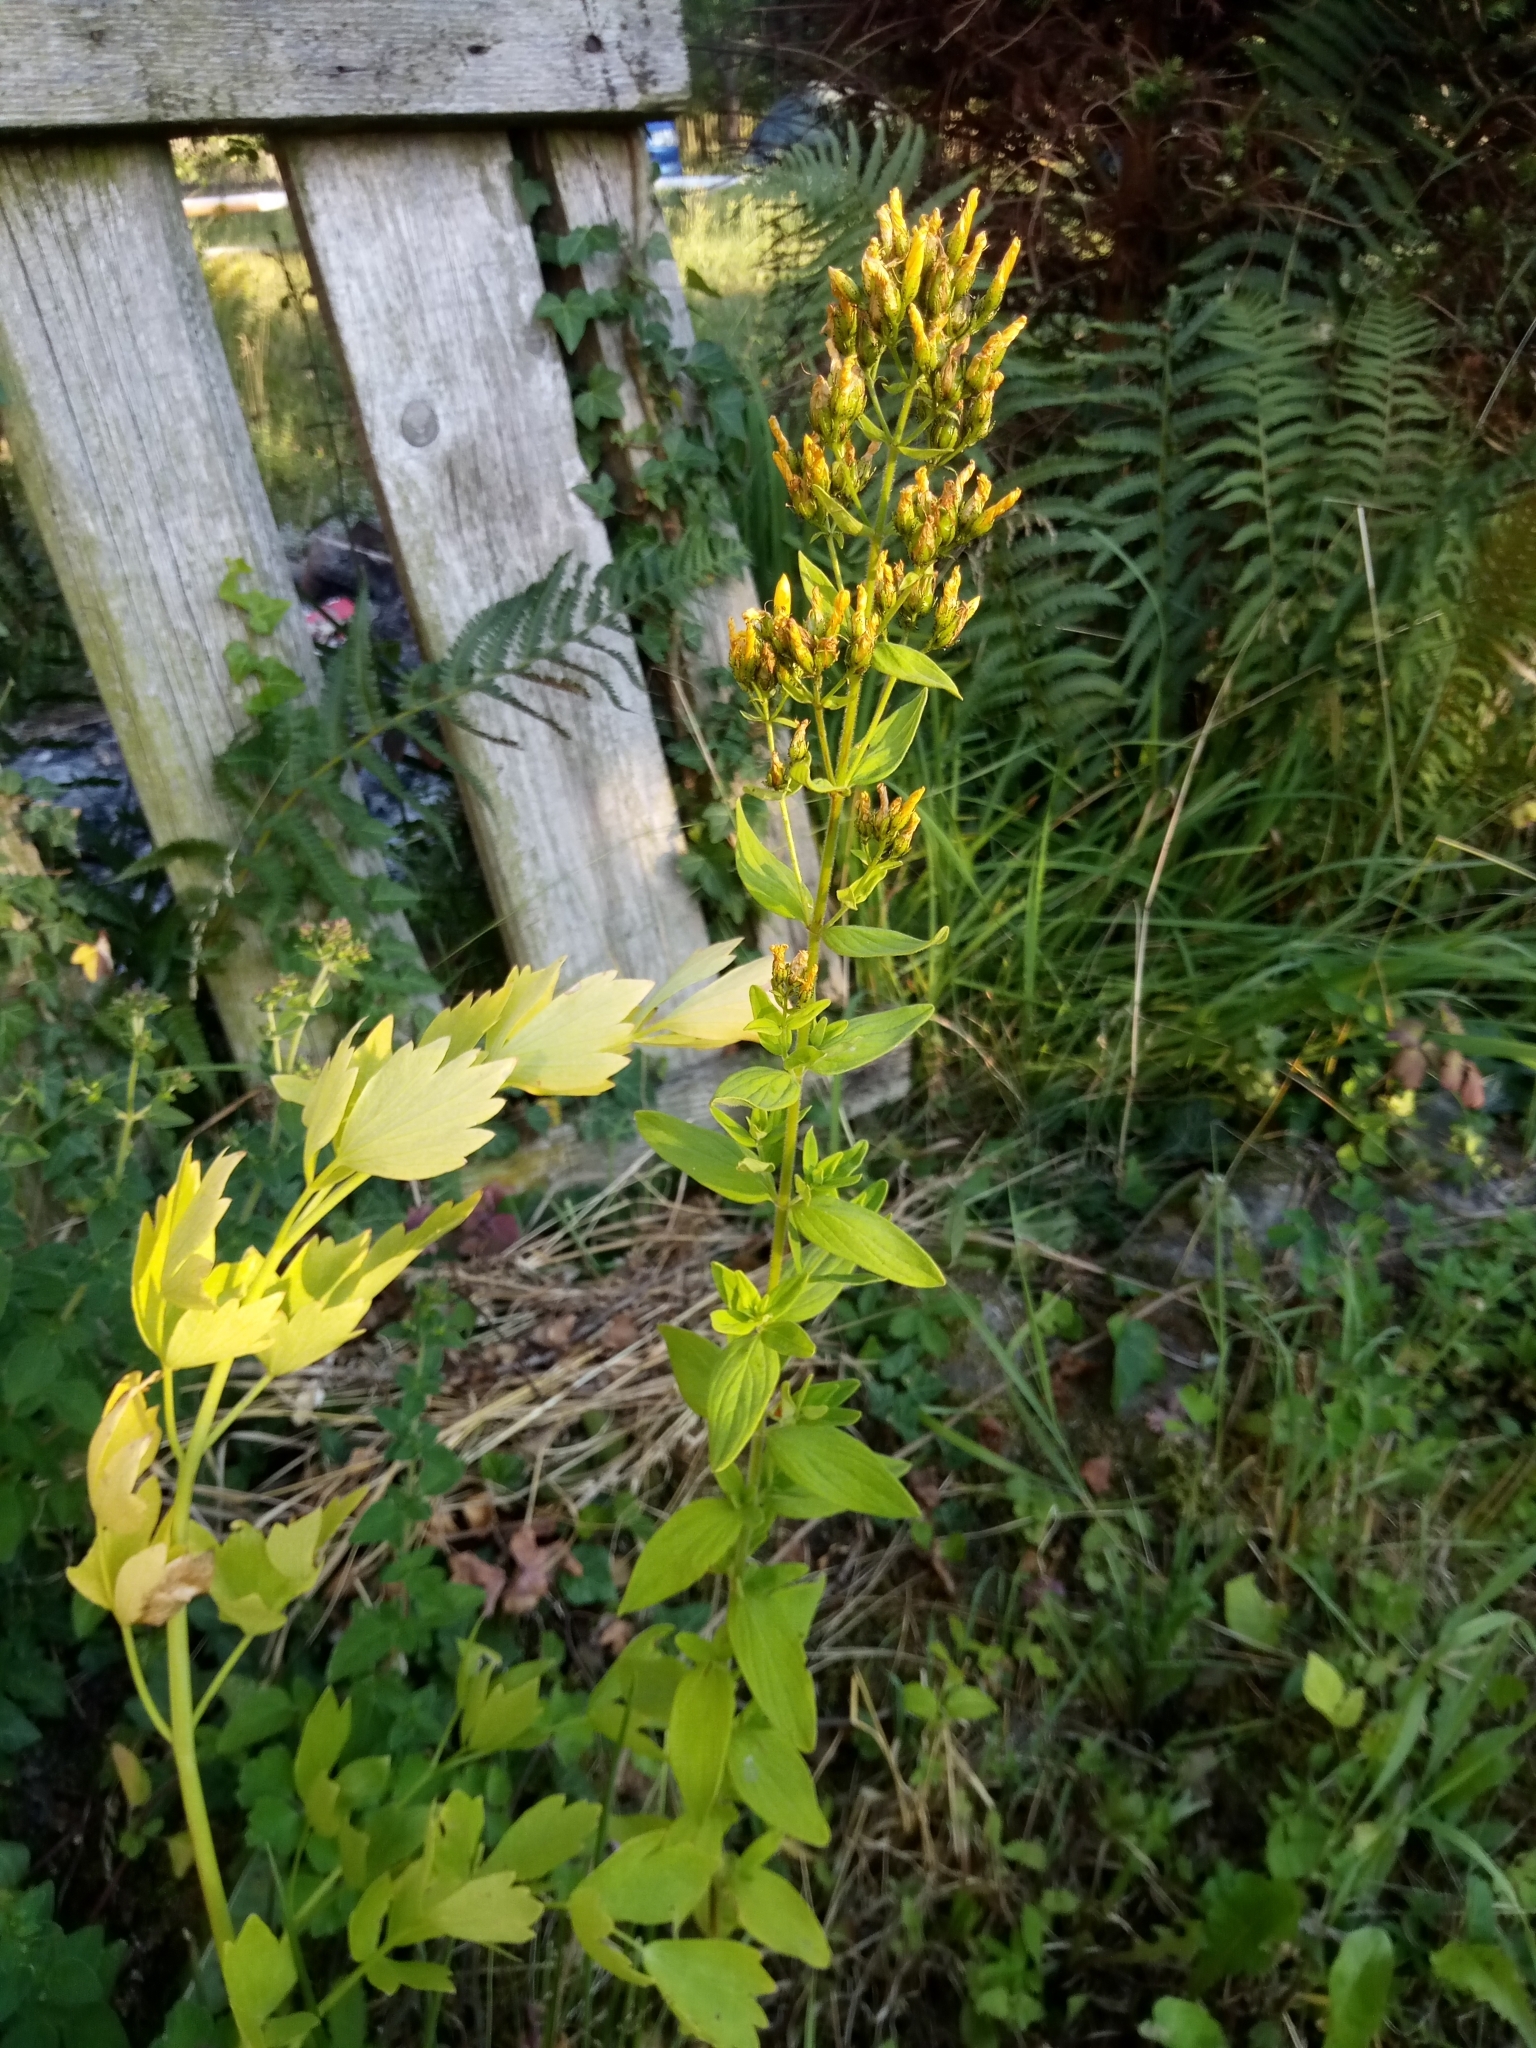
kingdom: Plantae
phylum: Tracheophyta
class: Magnoliopsida
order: Malpighiales
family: Hypericaceae
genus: Hypericum
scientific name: Hypericum hirsutum
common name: Hairy st. john's-wort
